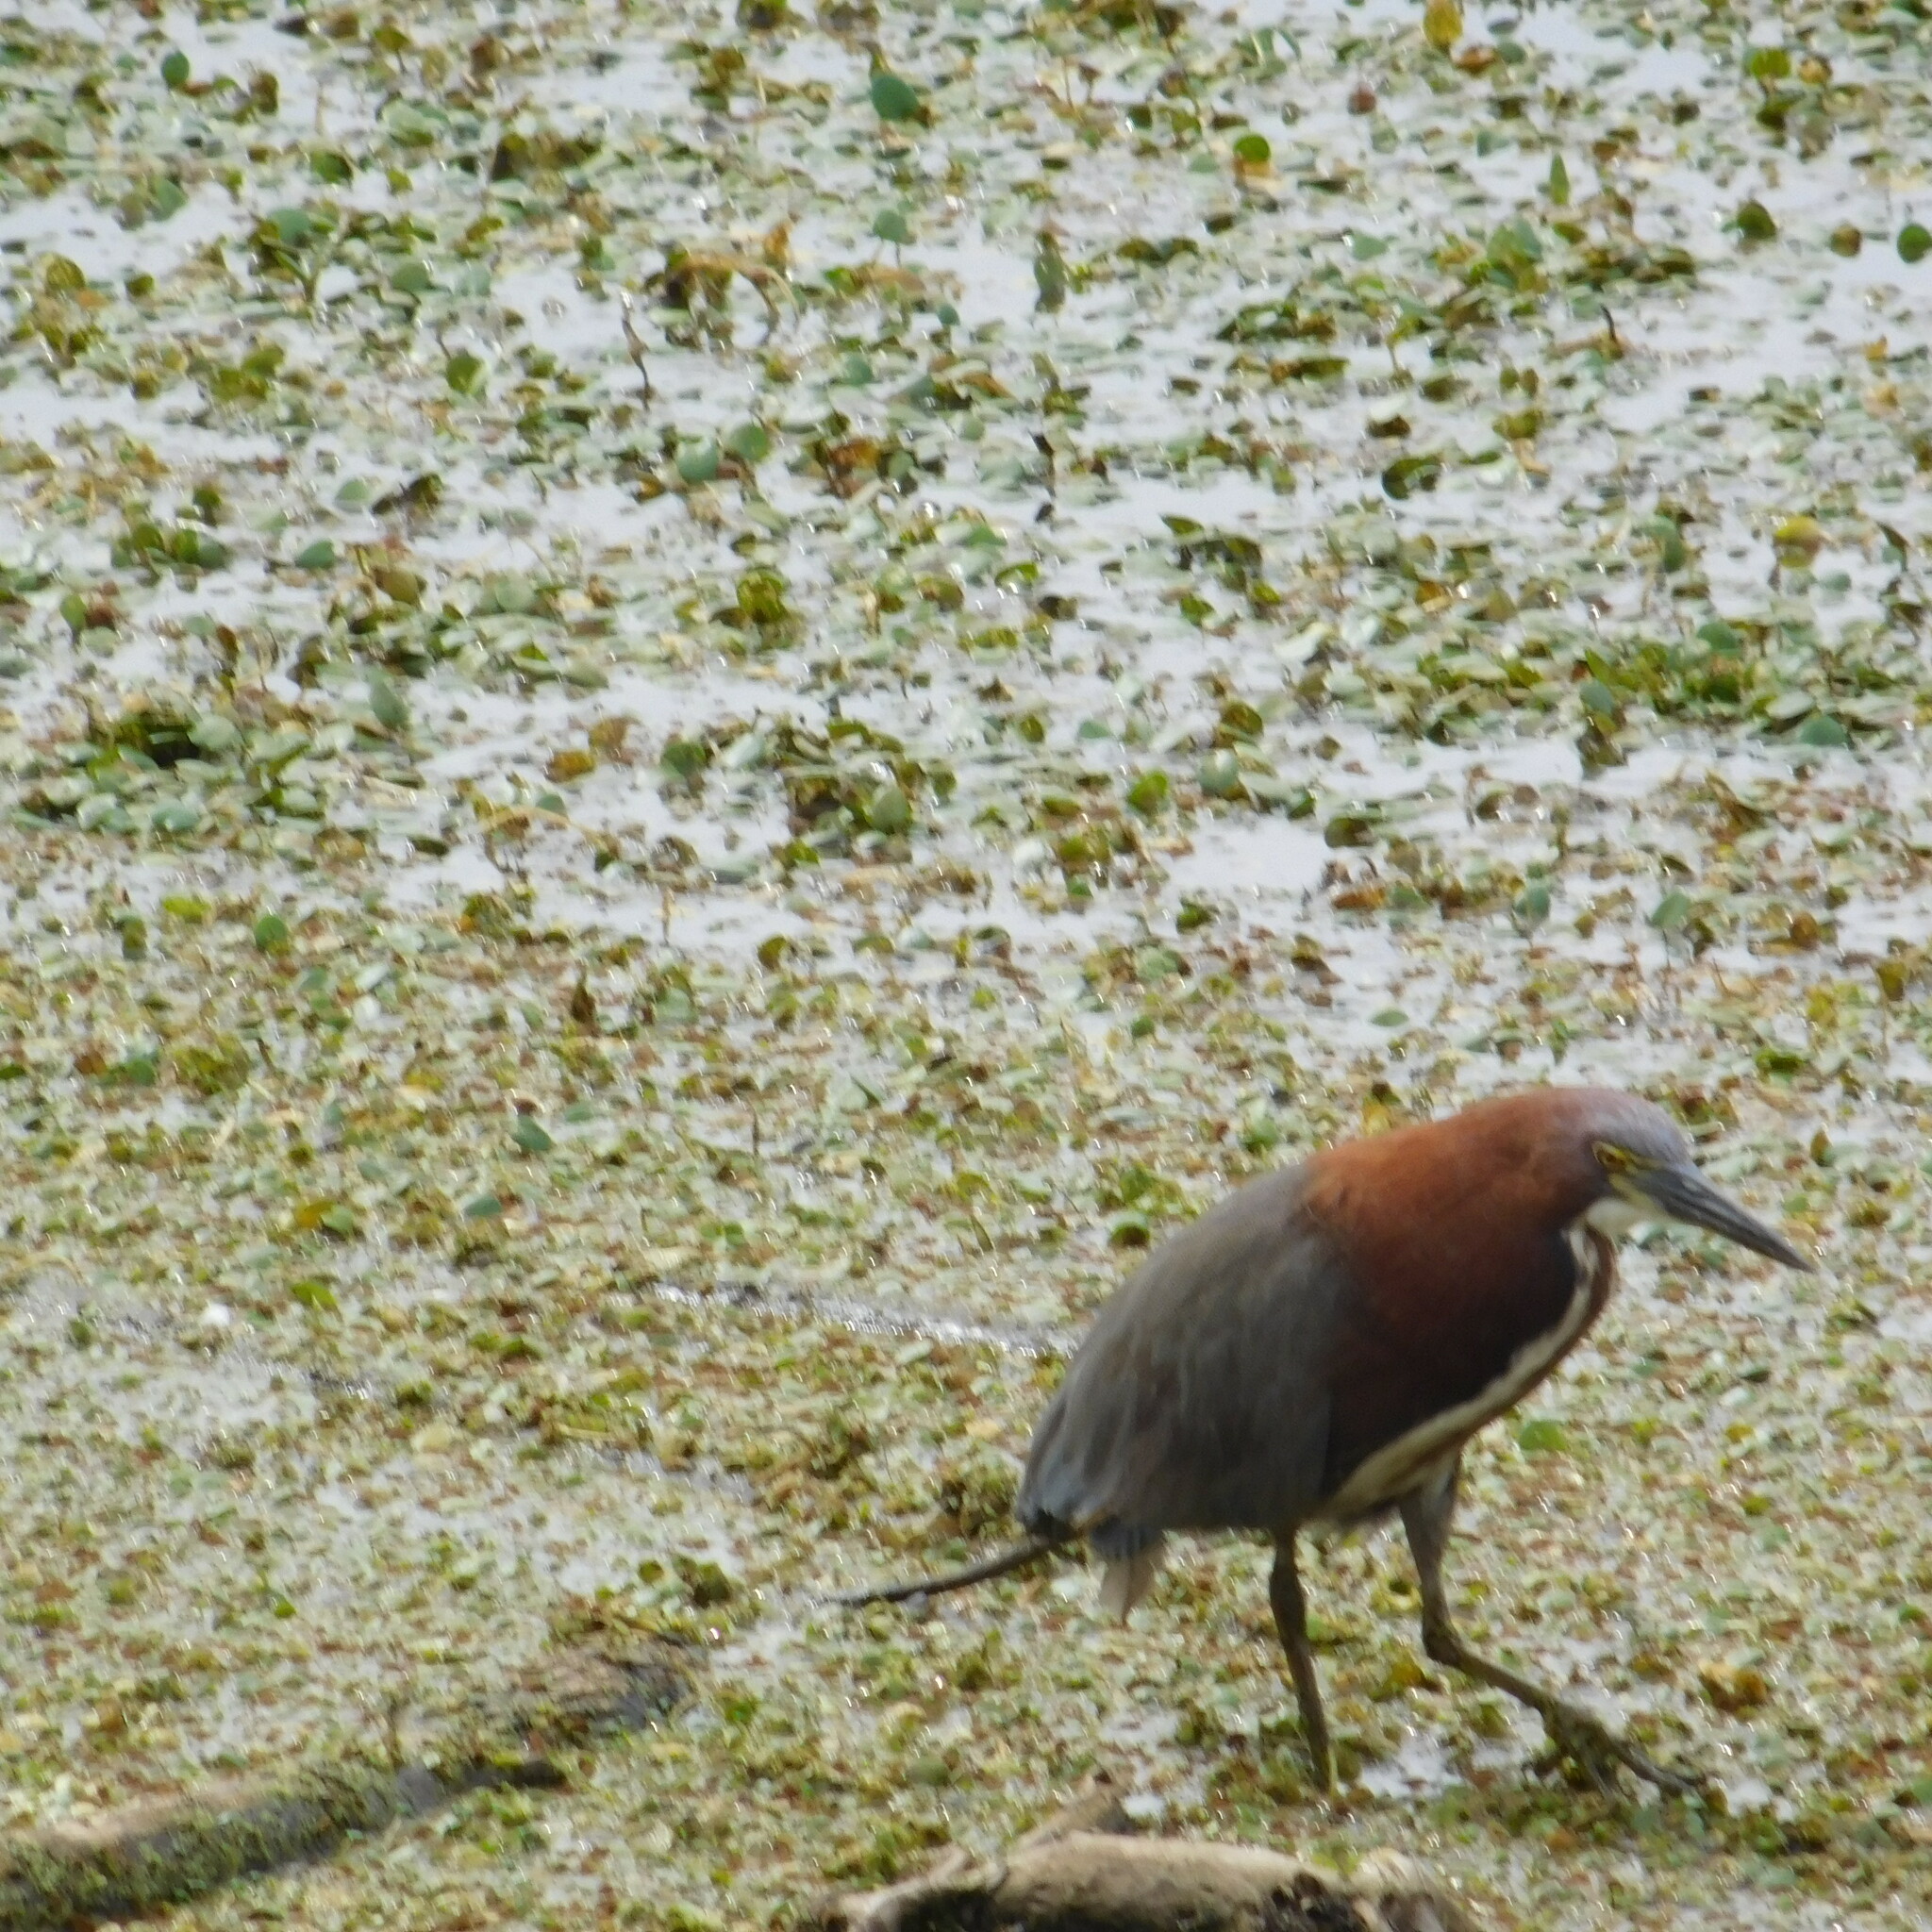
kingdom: Animalia
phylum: Chordata
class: Aves
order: Pelecaniformes
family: Ardeidae
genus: Tigrisoma
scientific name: Tigrisoma lineatum
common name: Rufescent tiger-heron
